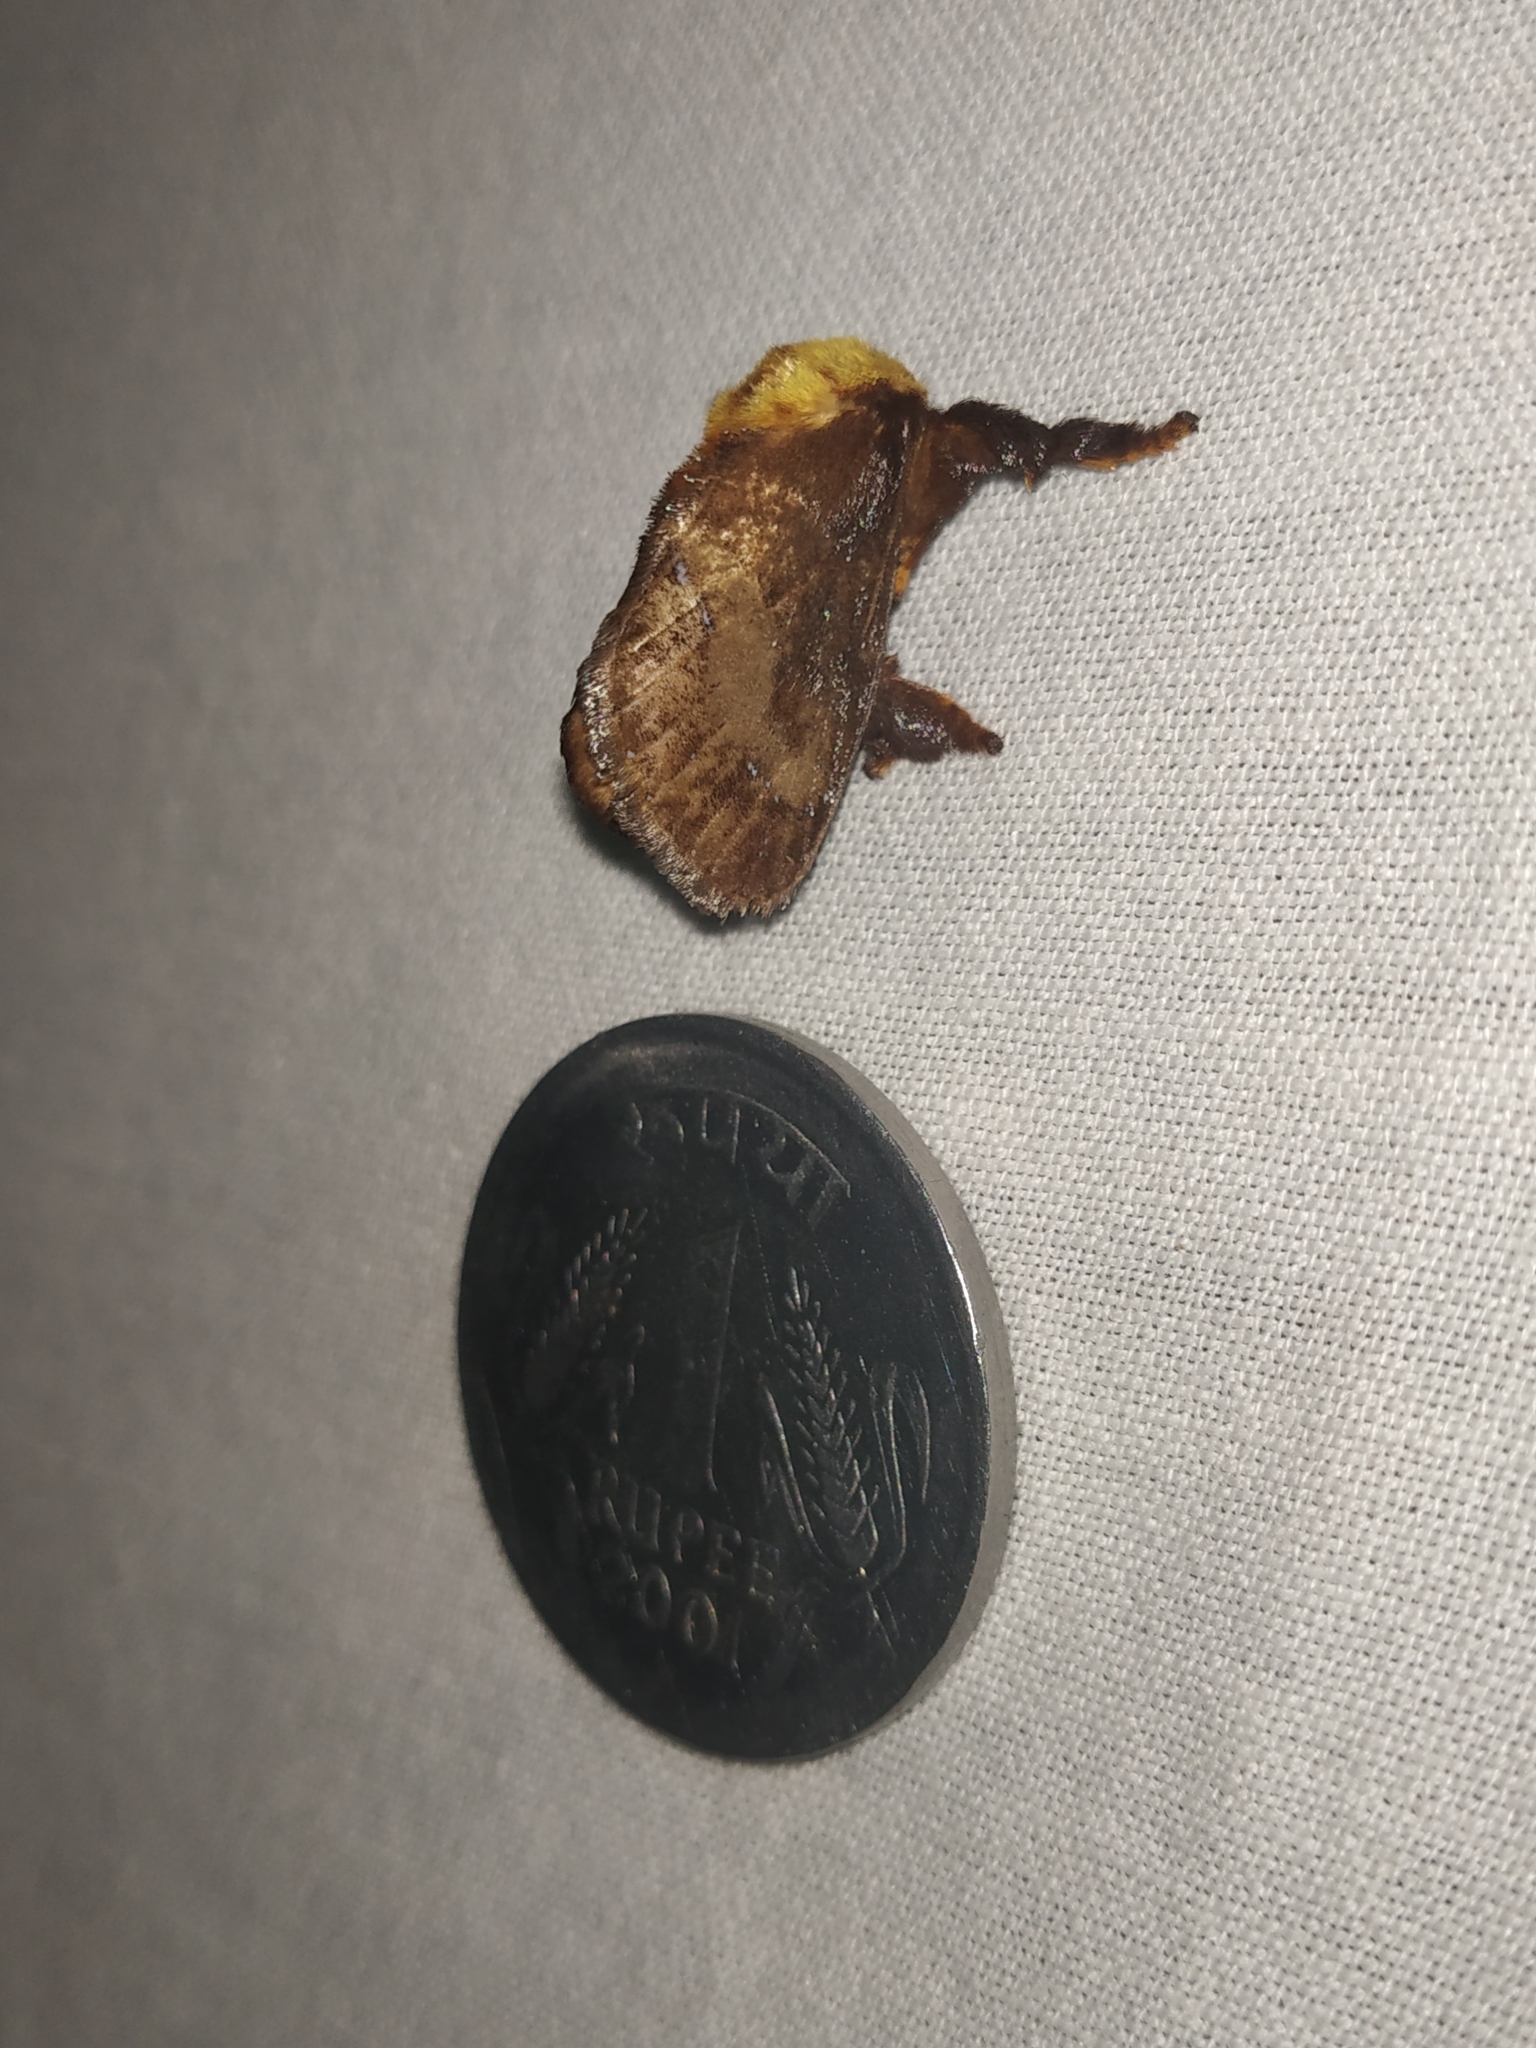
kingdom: Animalia
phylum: Arthropoda
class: Insecta
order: Lepidoptera
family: Limacodidae
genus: Miresa
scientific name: Miresa argentifera
